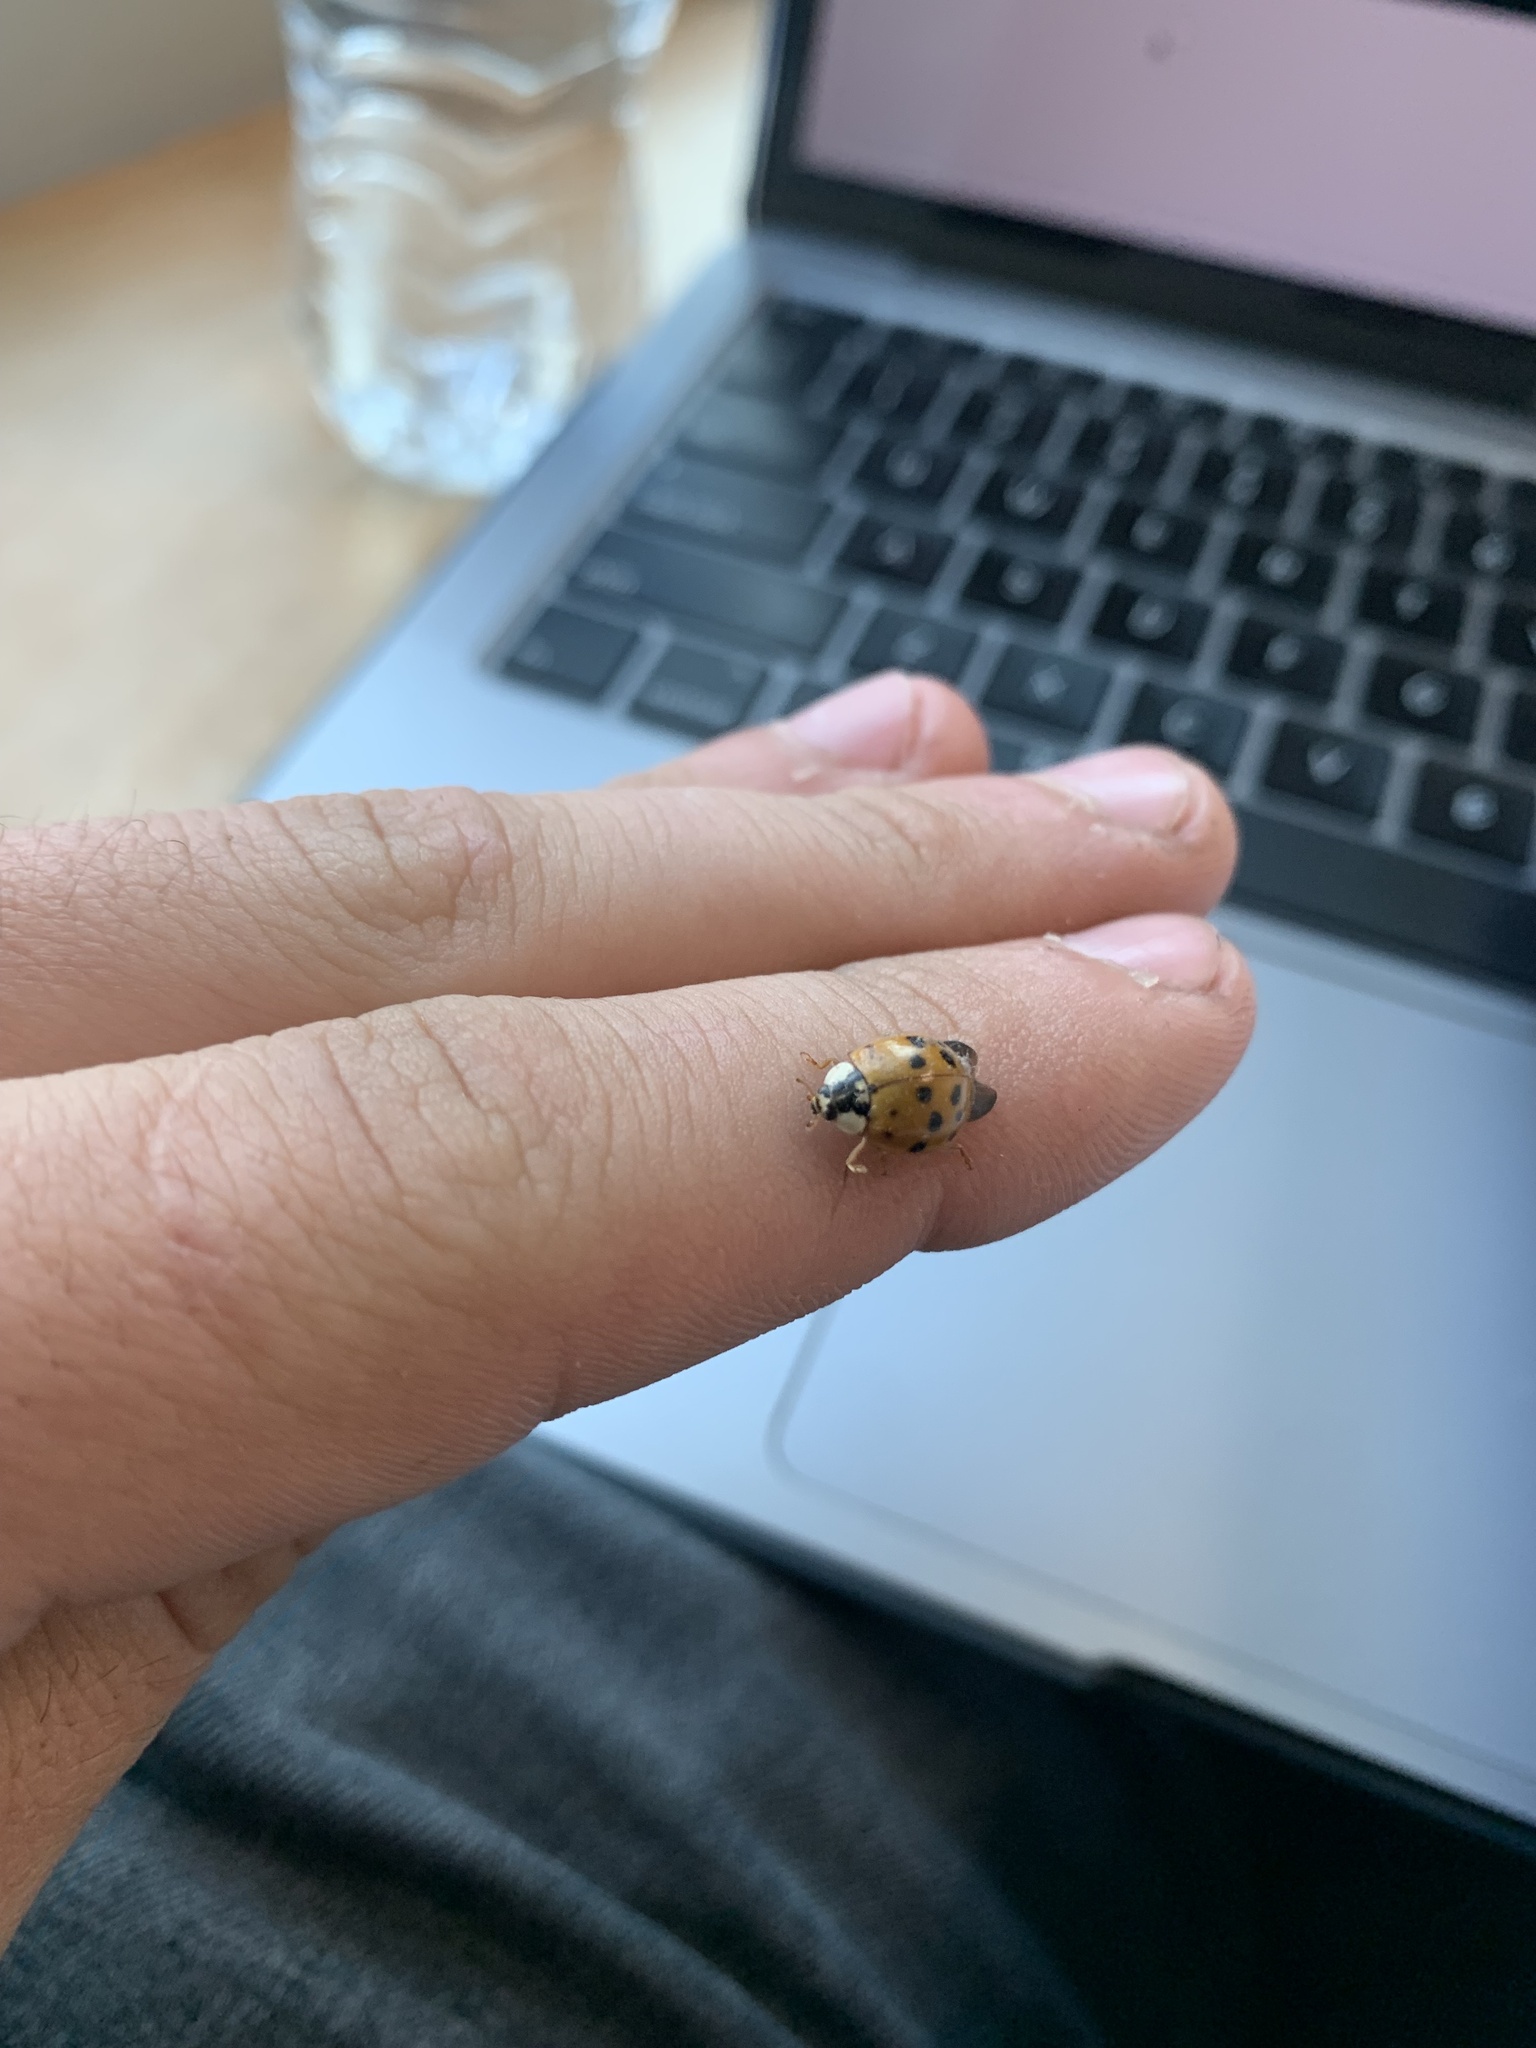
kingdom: Animalia
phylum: Arthropoda
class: Insecta
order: Coleoptera
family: Coccinellidae
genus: Harmonia
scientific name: Harmonia axyridis
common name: Harlequin ladybird
